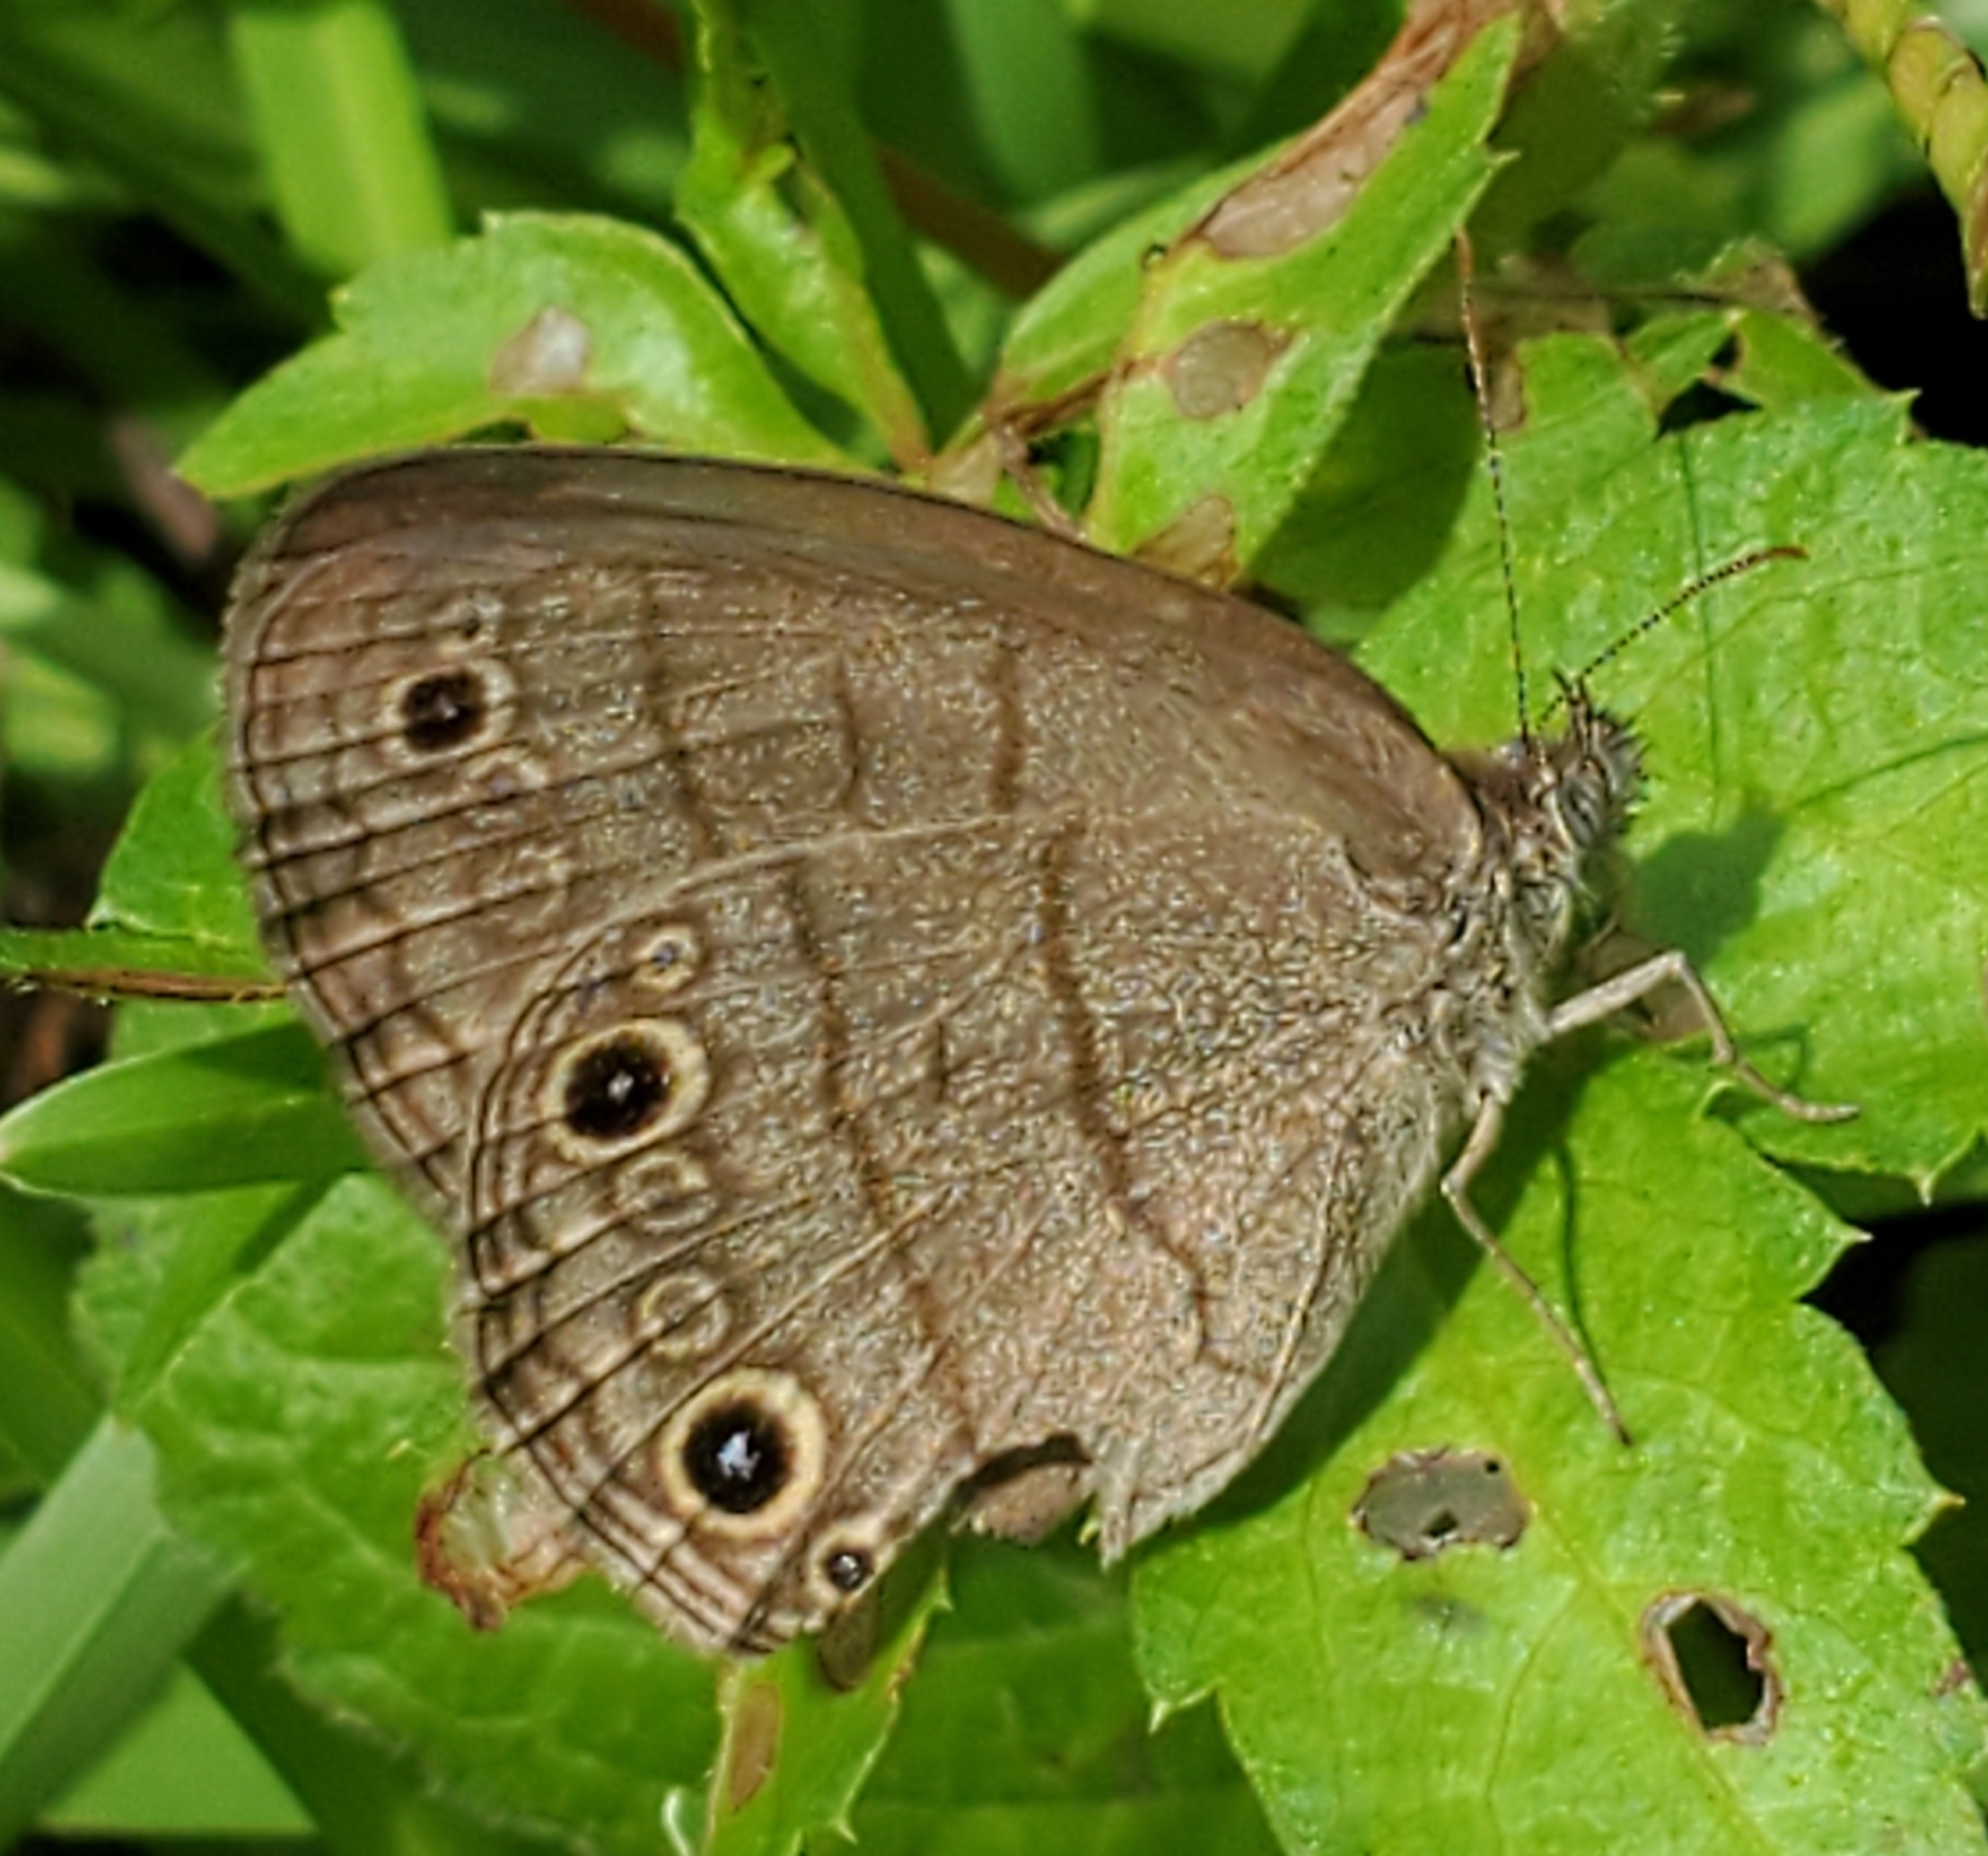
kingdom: Animalia
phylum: Arthropoda
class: Insecta
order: Lepidoptera
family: Nymphalidae
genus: Hermeuptychia
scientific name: Hermeuptychia hermes
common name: Hermes satyr
